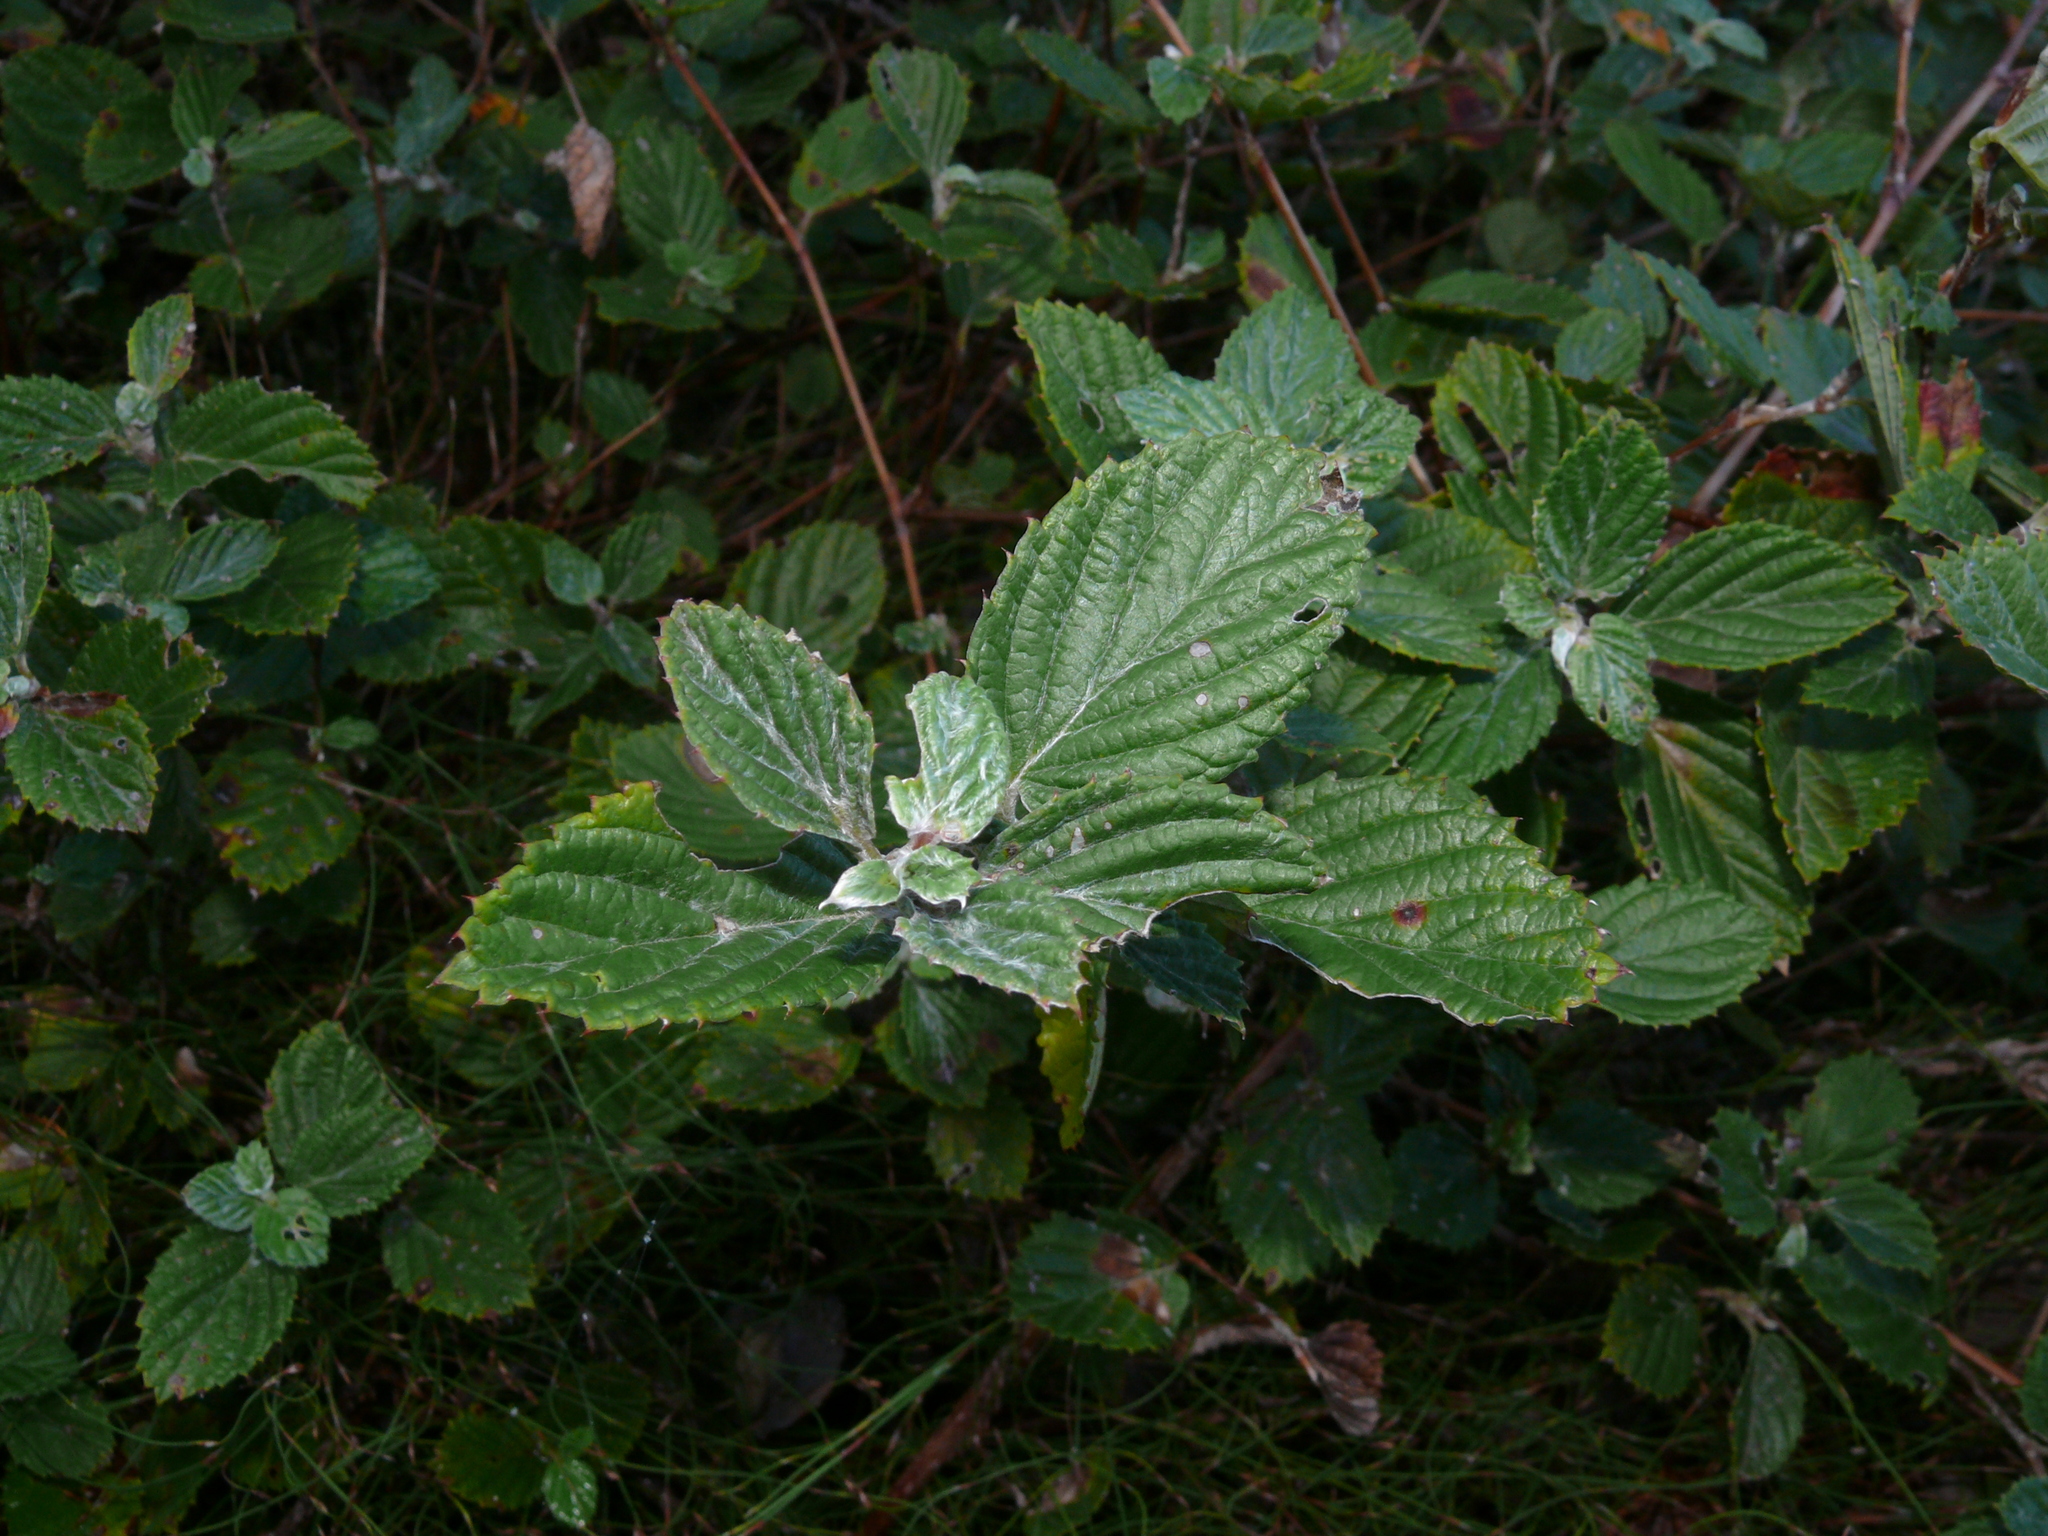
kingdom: Plantae
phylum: Tracheophyta
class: Magnoliopsida
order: Rosales
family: Rosaceae
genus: Cliffortia
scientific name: Cliffortia odorata
